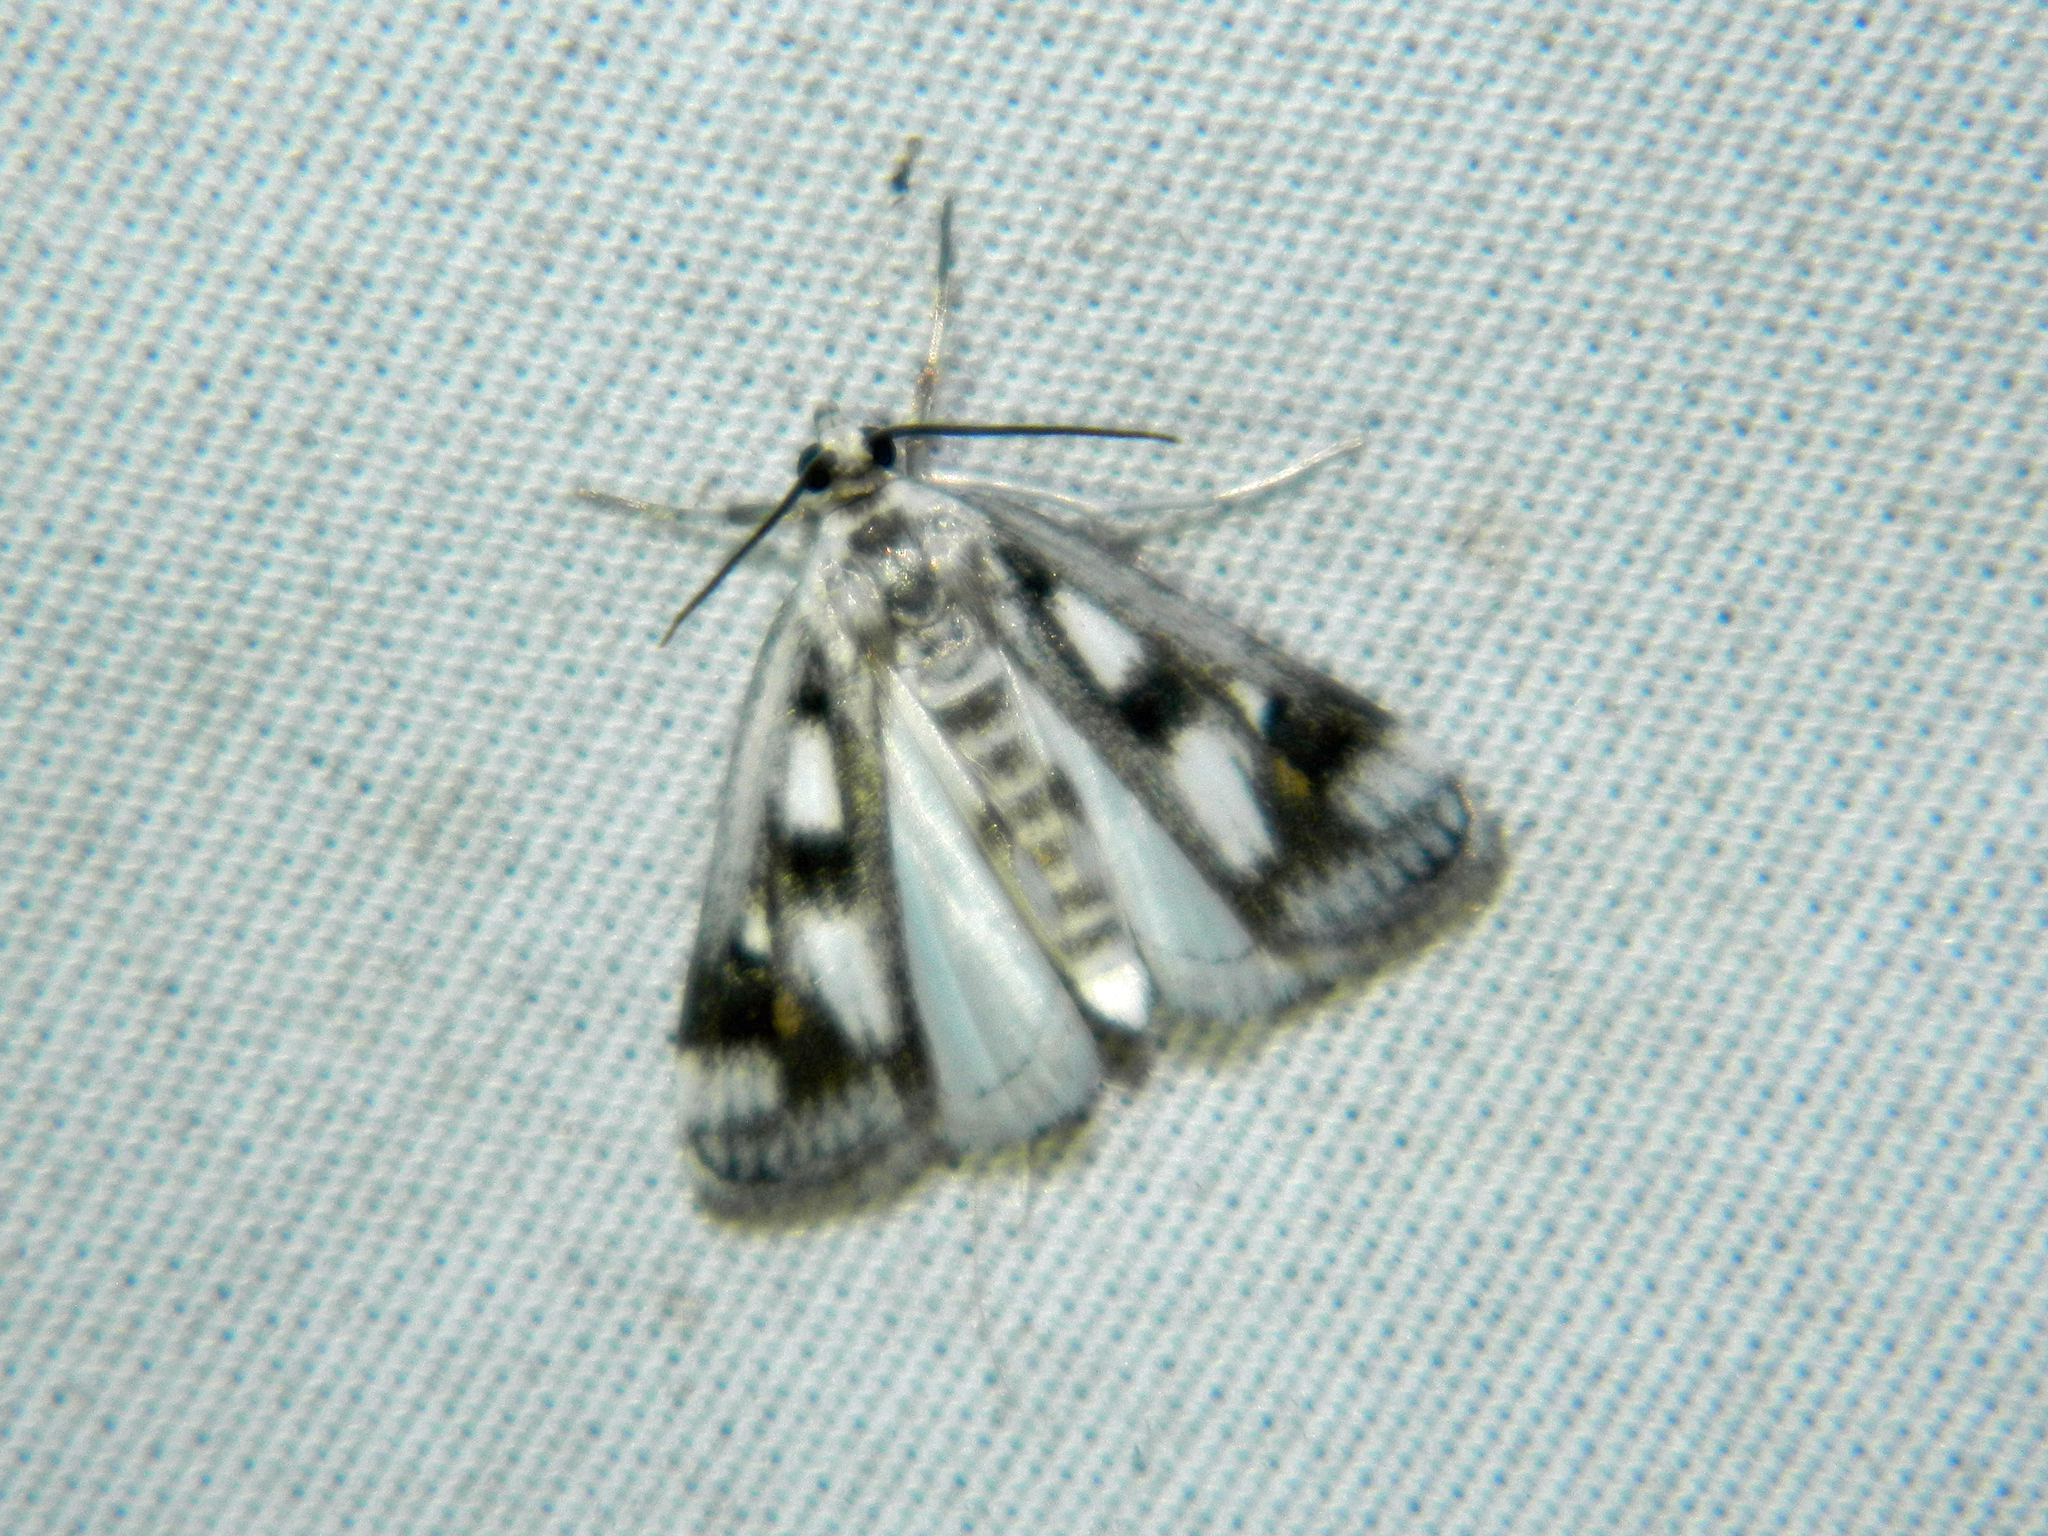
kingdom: Animalia
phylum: Arthropoda
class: Insecta
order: Lepidoptera
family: Crambidae
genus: Parapoynx
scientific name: Parapoynx maculalis
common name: Polymorphic pondweed moth
